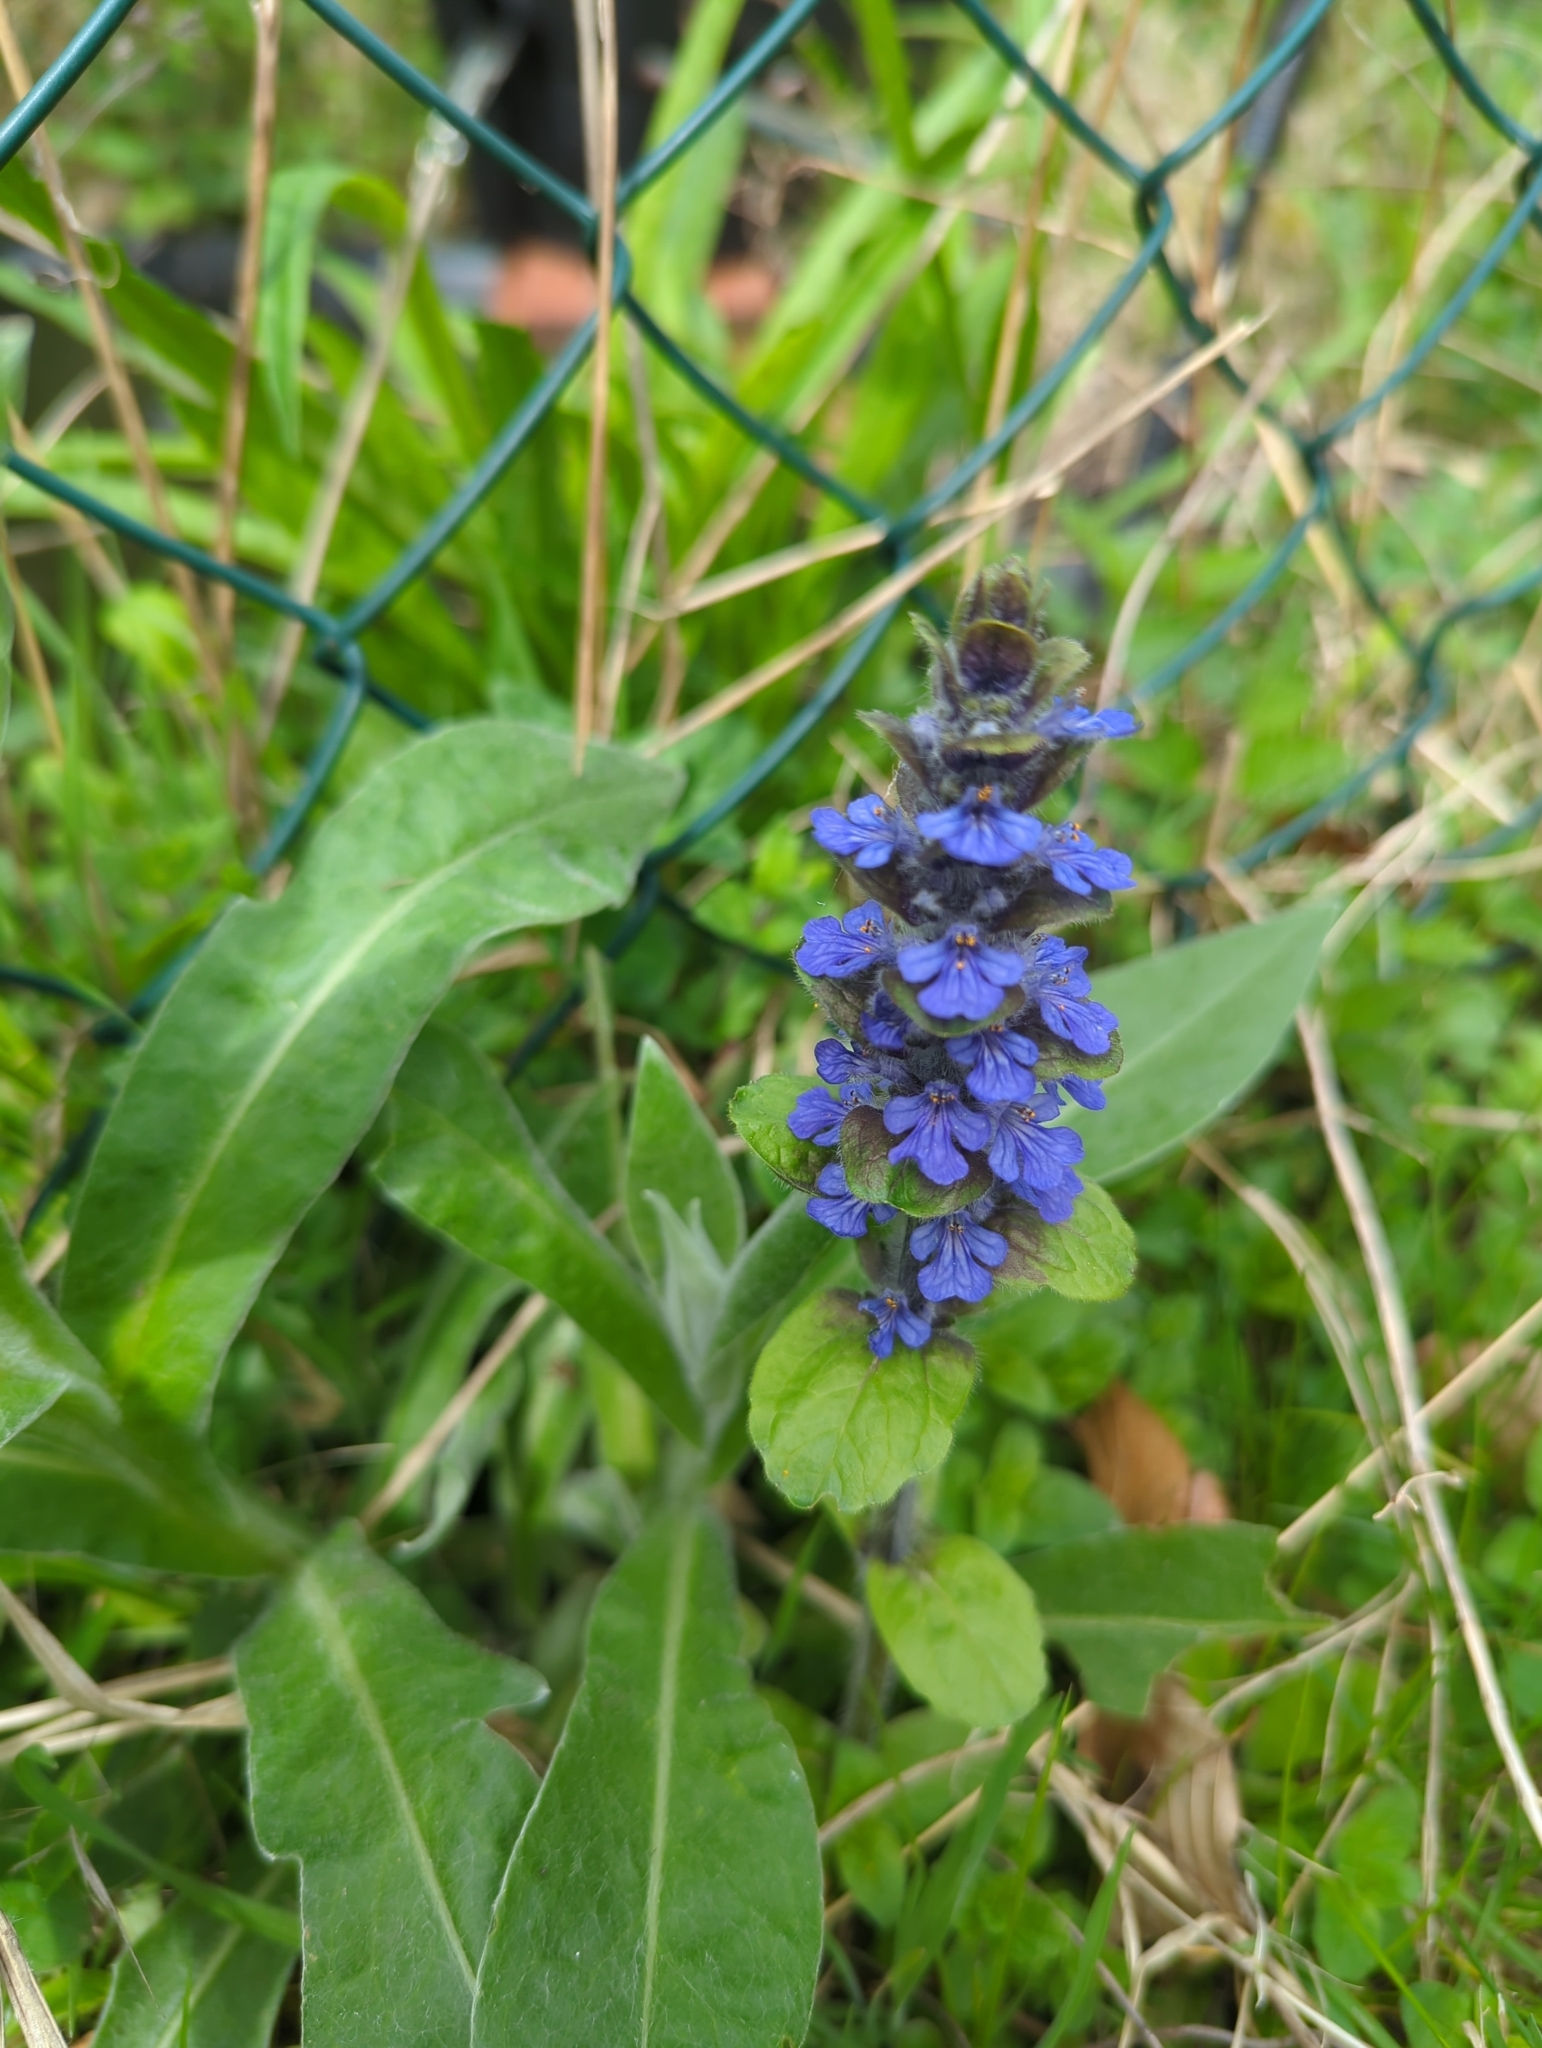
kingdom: Plantae
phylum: Tracheophyta
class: Magnoliopsida
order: Lamiales
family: Lamiaceae
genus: Ajuga
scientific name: Ajuga reptans
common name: Bugle
